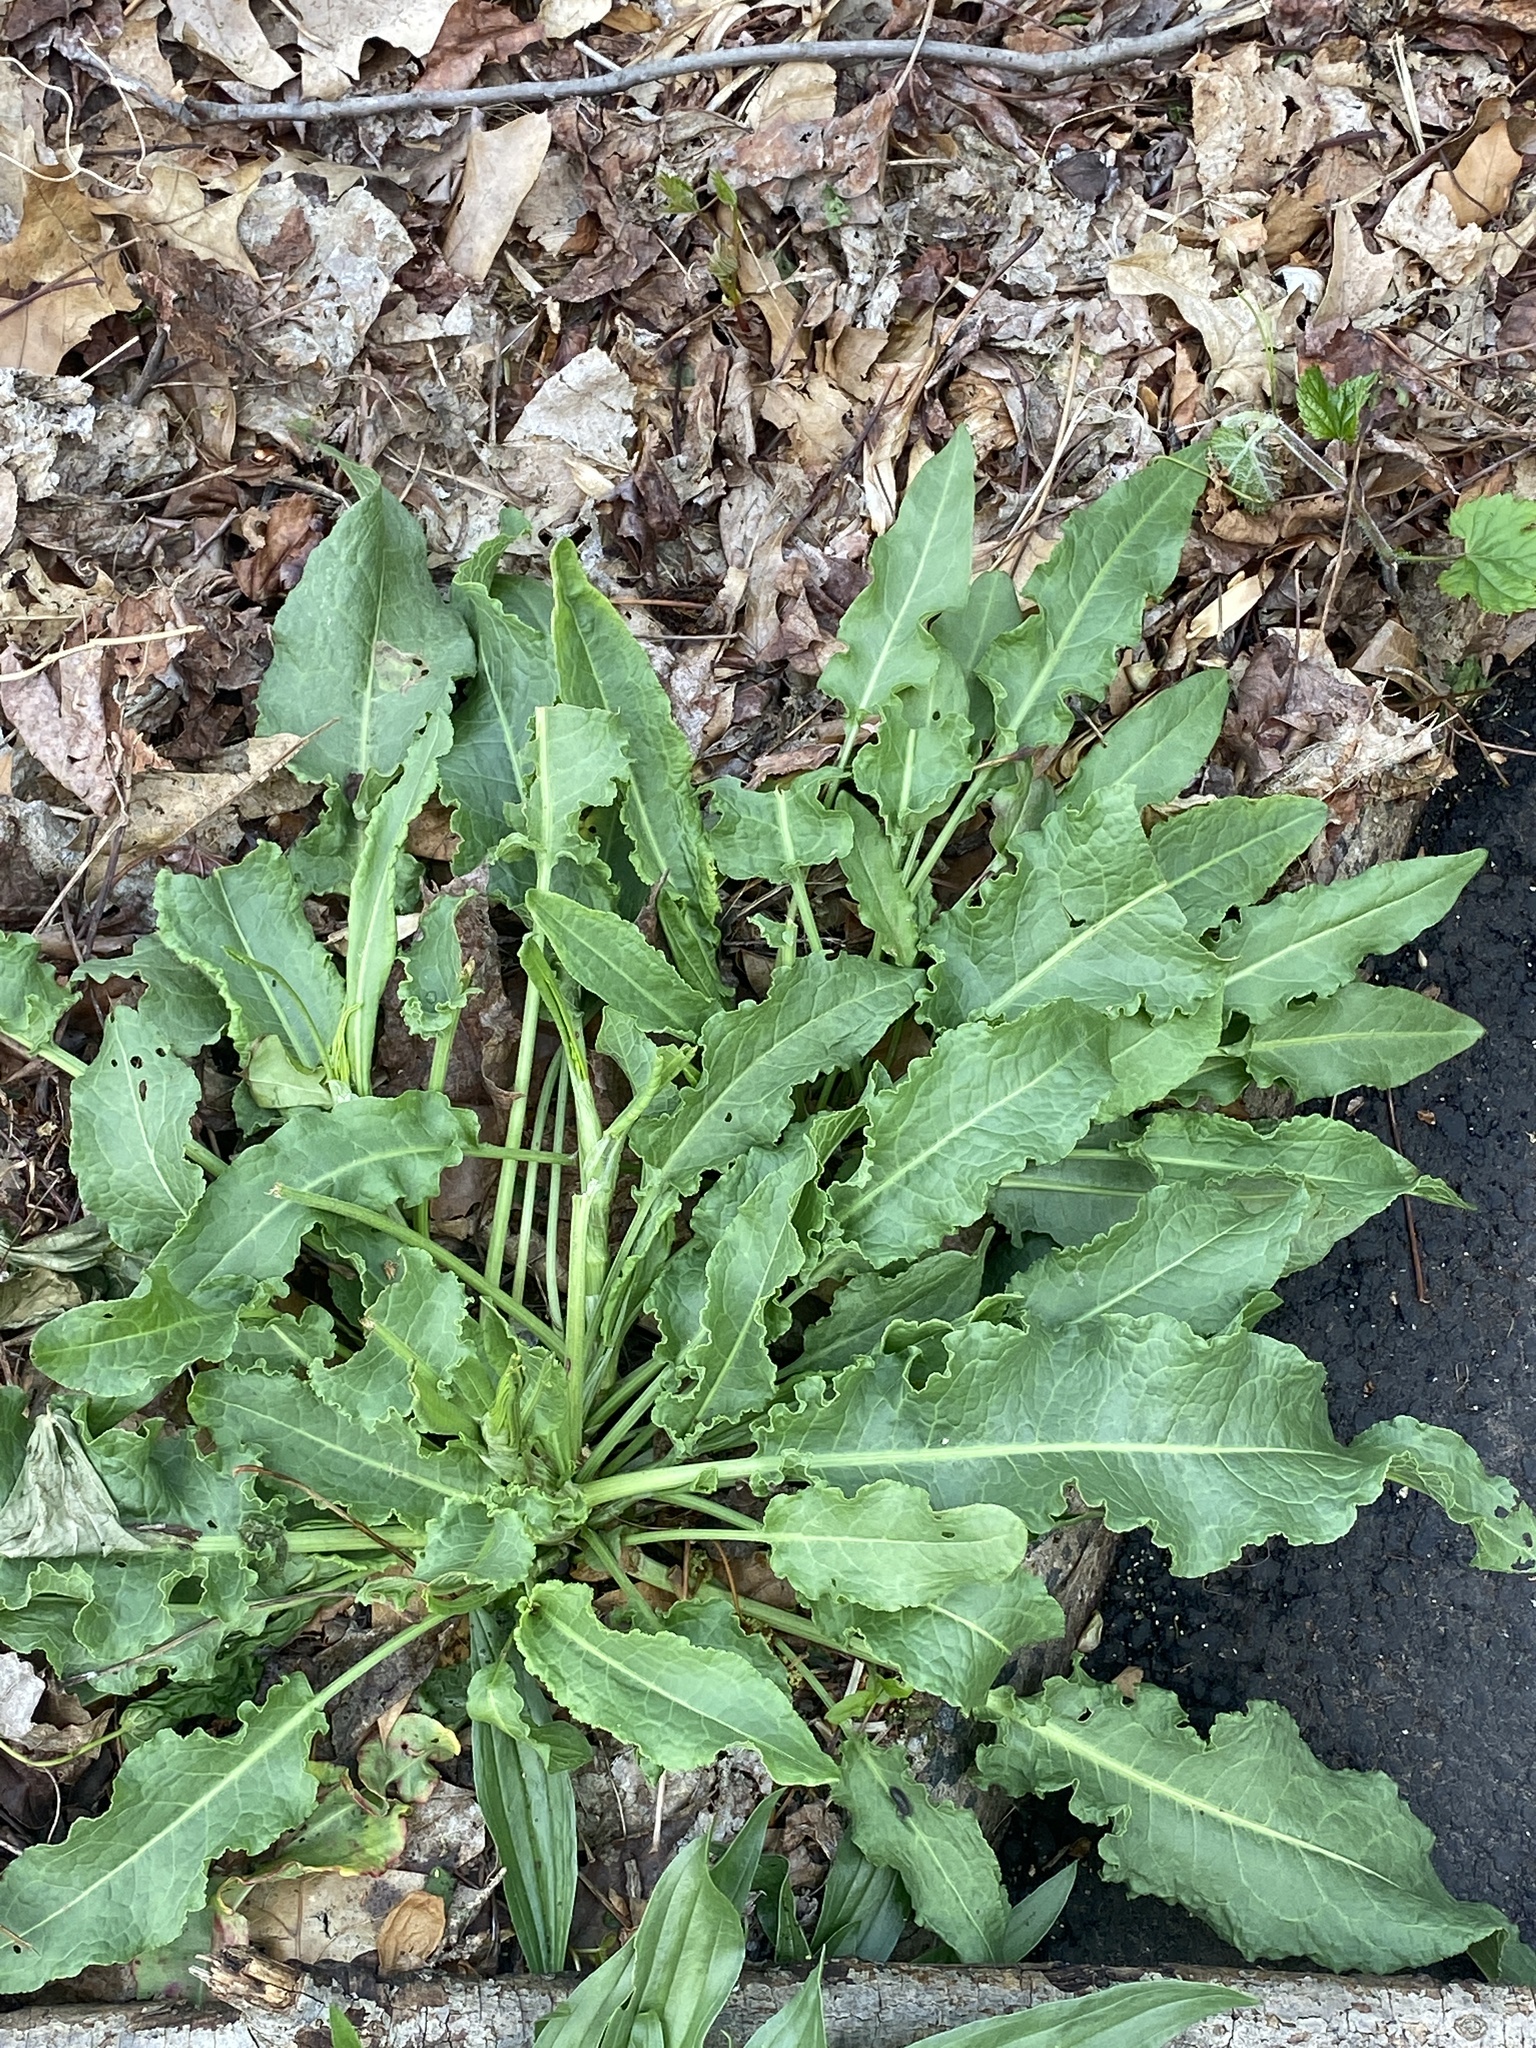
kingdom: Plantae
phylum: Tracheophyta
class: Magnoliopsida
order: Caryophyllales
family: Polygonaceae
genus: Rumex
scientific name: Rumex crispus
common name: Curled dock
